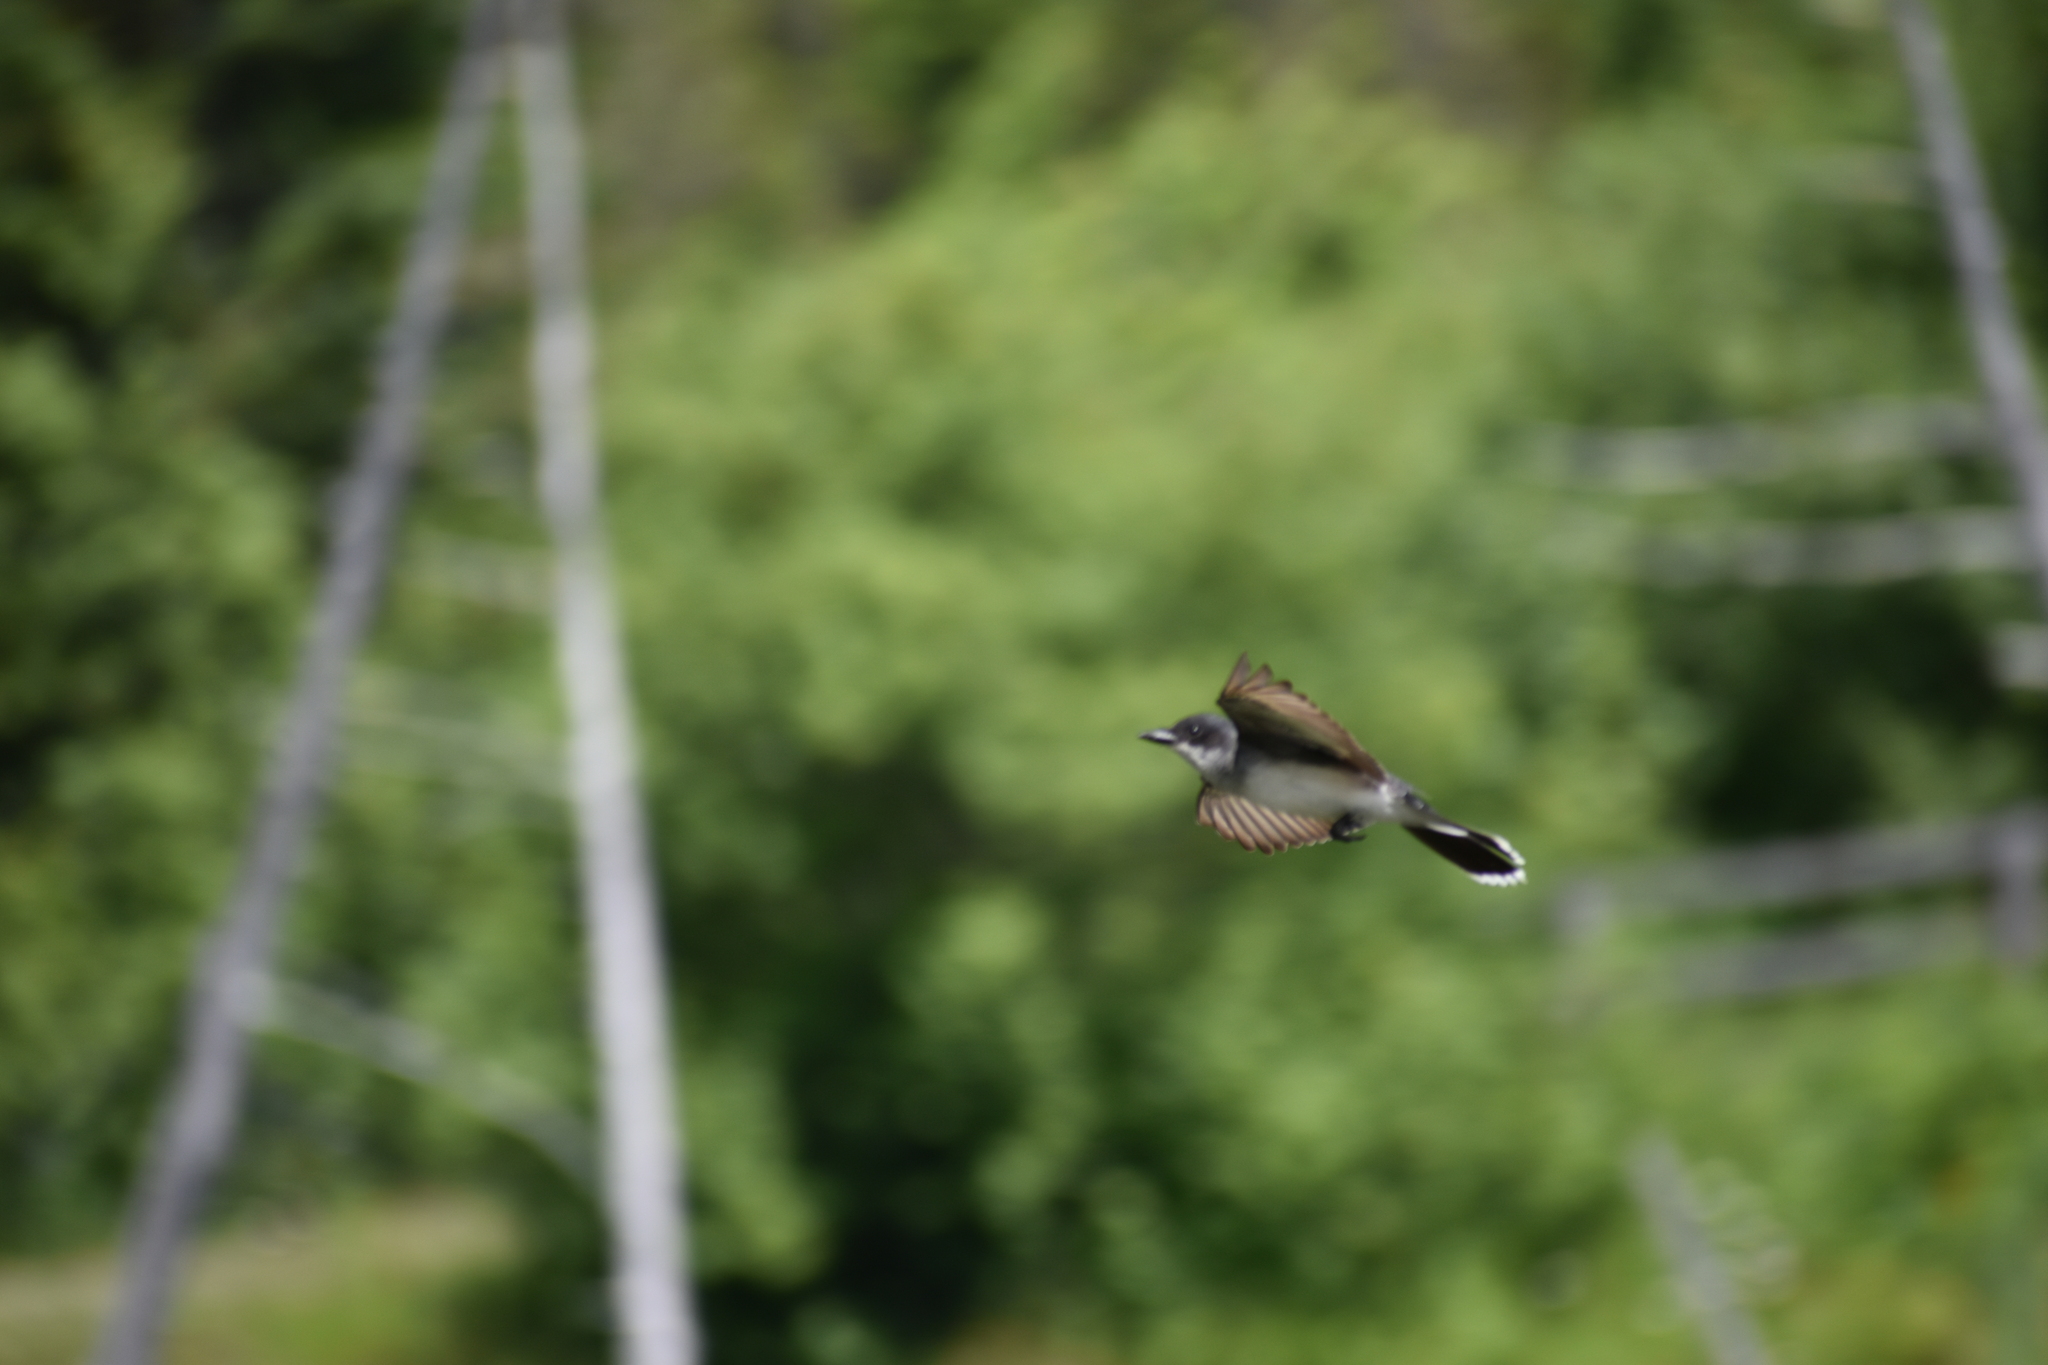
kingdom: Animalia
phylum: Chordata
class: Aves
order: Passeriformes
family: Tyrannidae
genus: Tyrannus
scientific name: Tyrannus tyrannus
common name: Eastern kingbird
